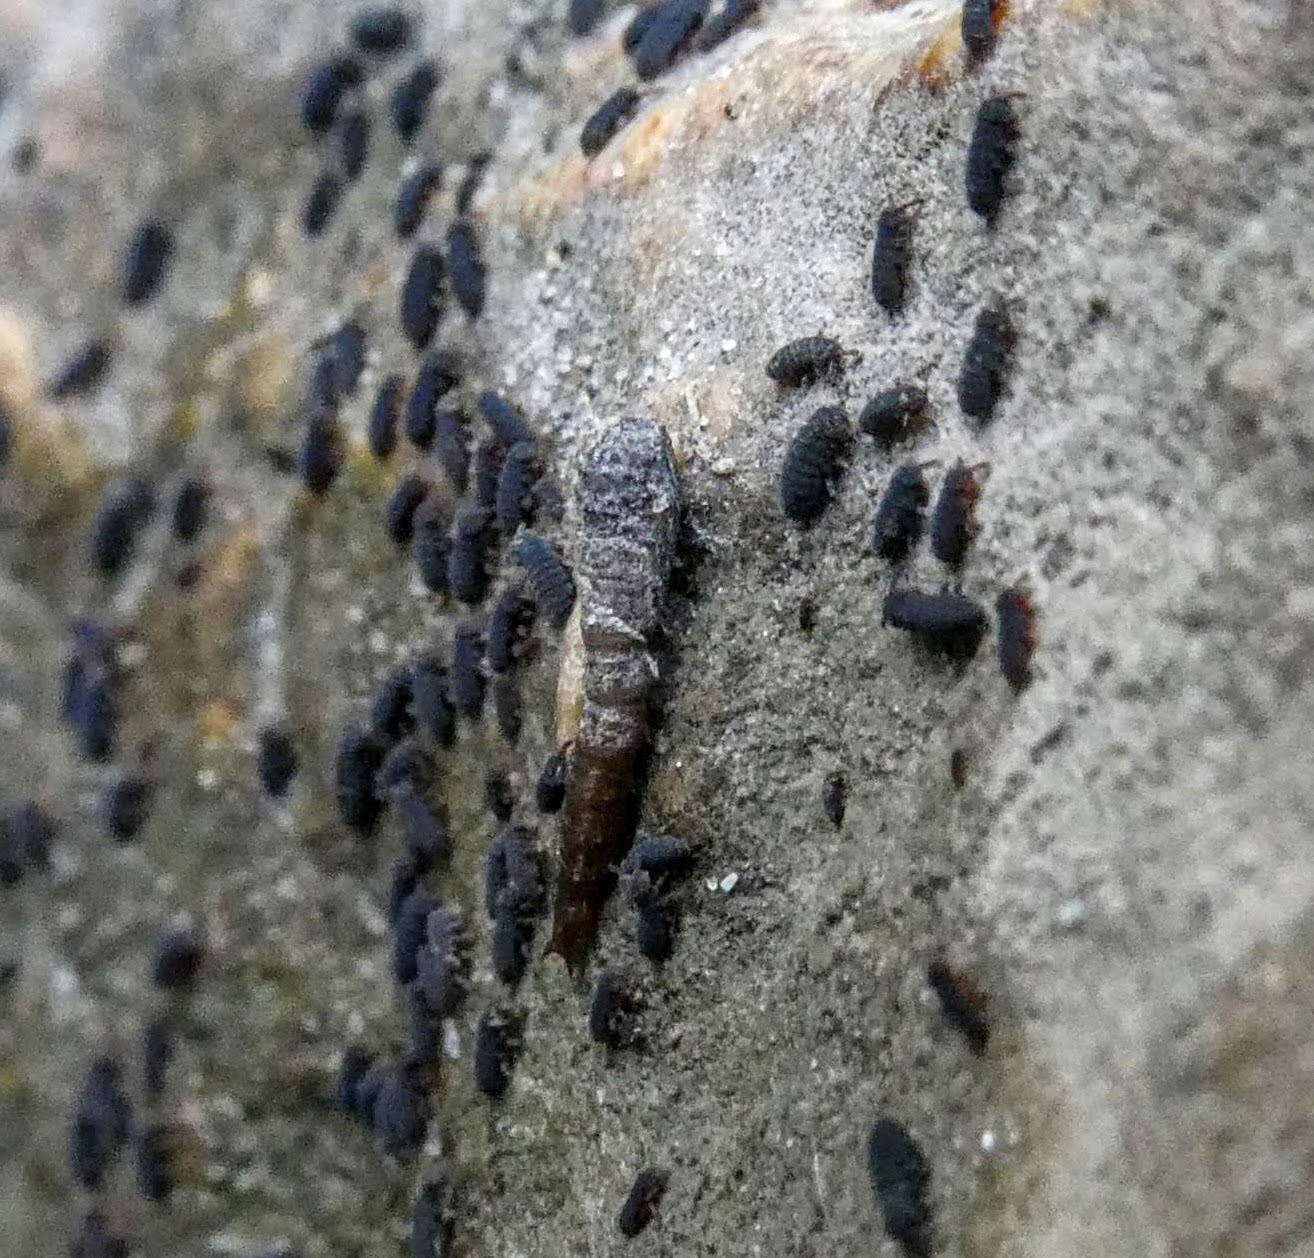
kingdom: Animalia
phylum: Arthropoda
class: Collembola
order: Poduromorpha
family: Poduridae
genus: Podura
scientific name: Podura aquatica
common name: Water springtail
